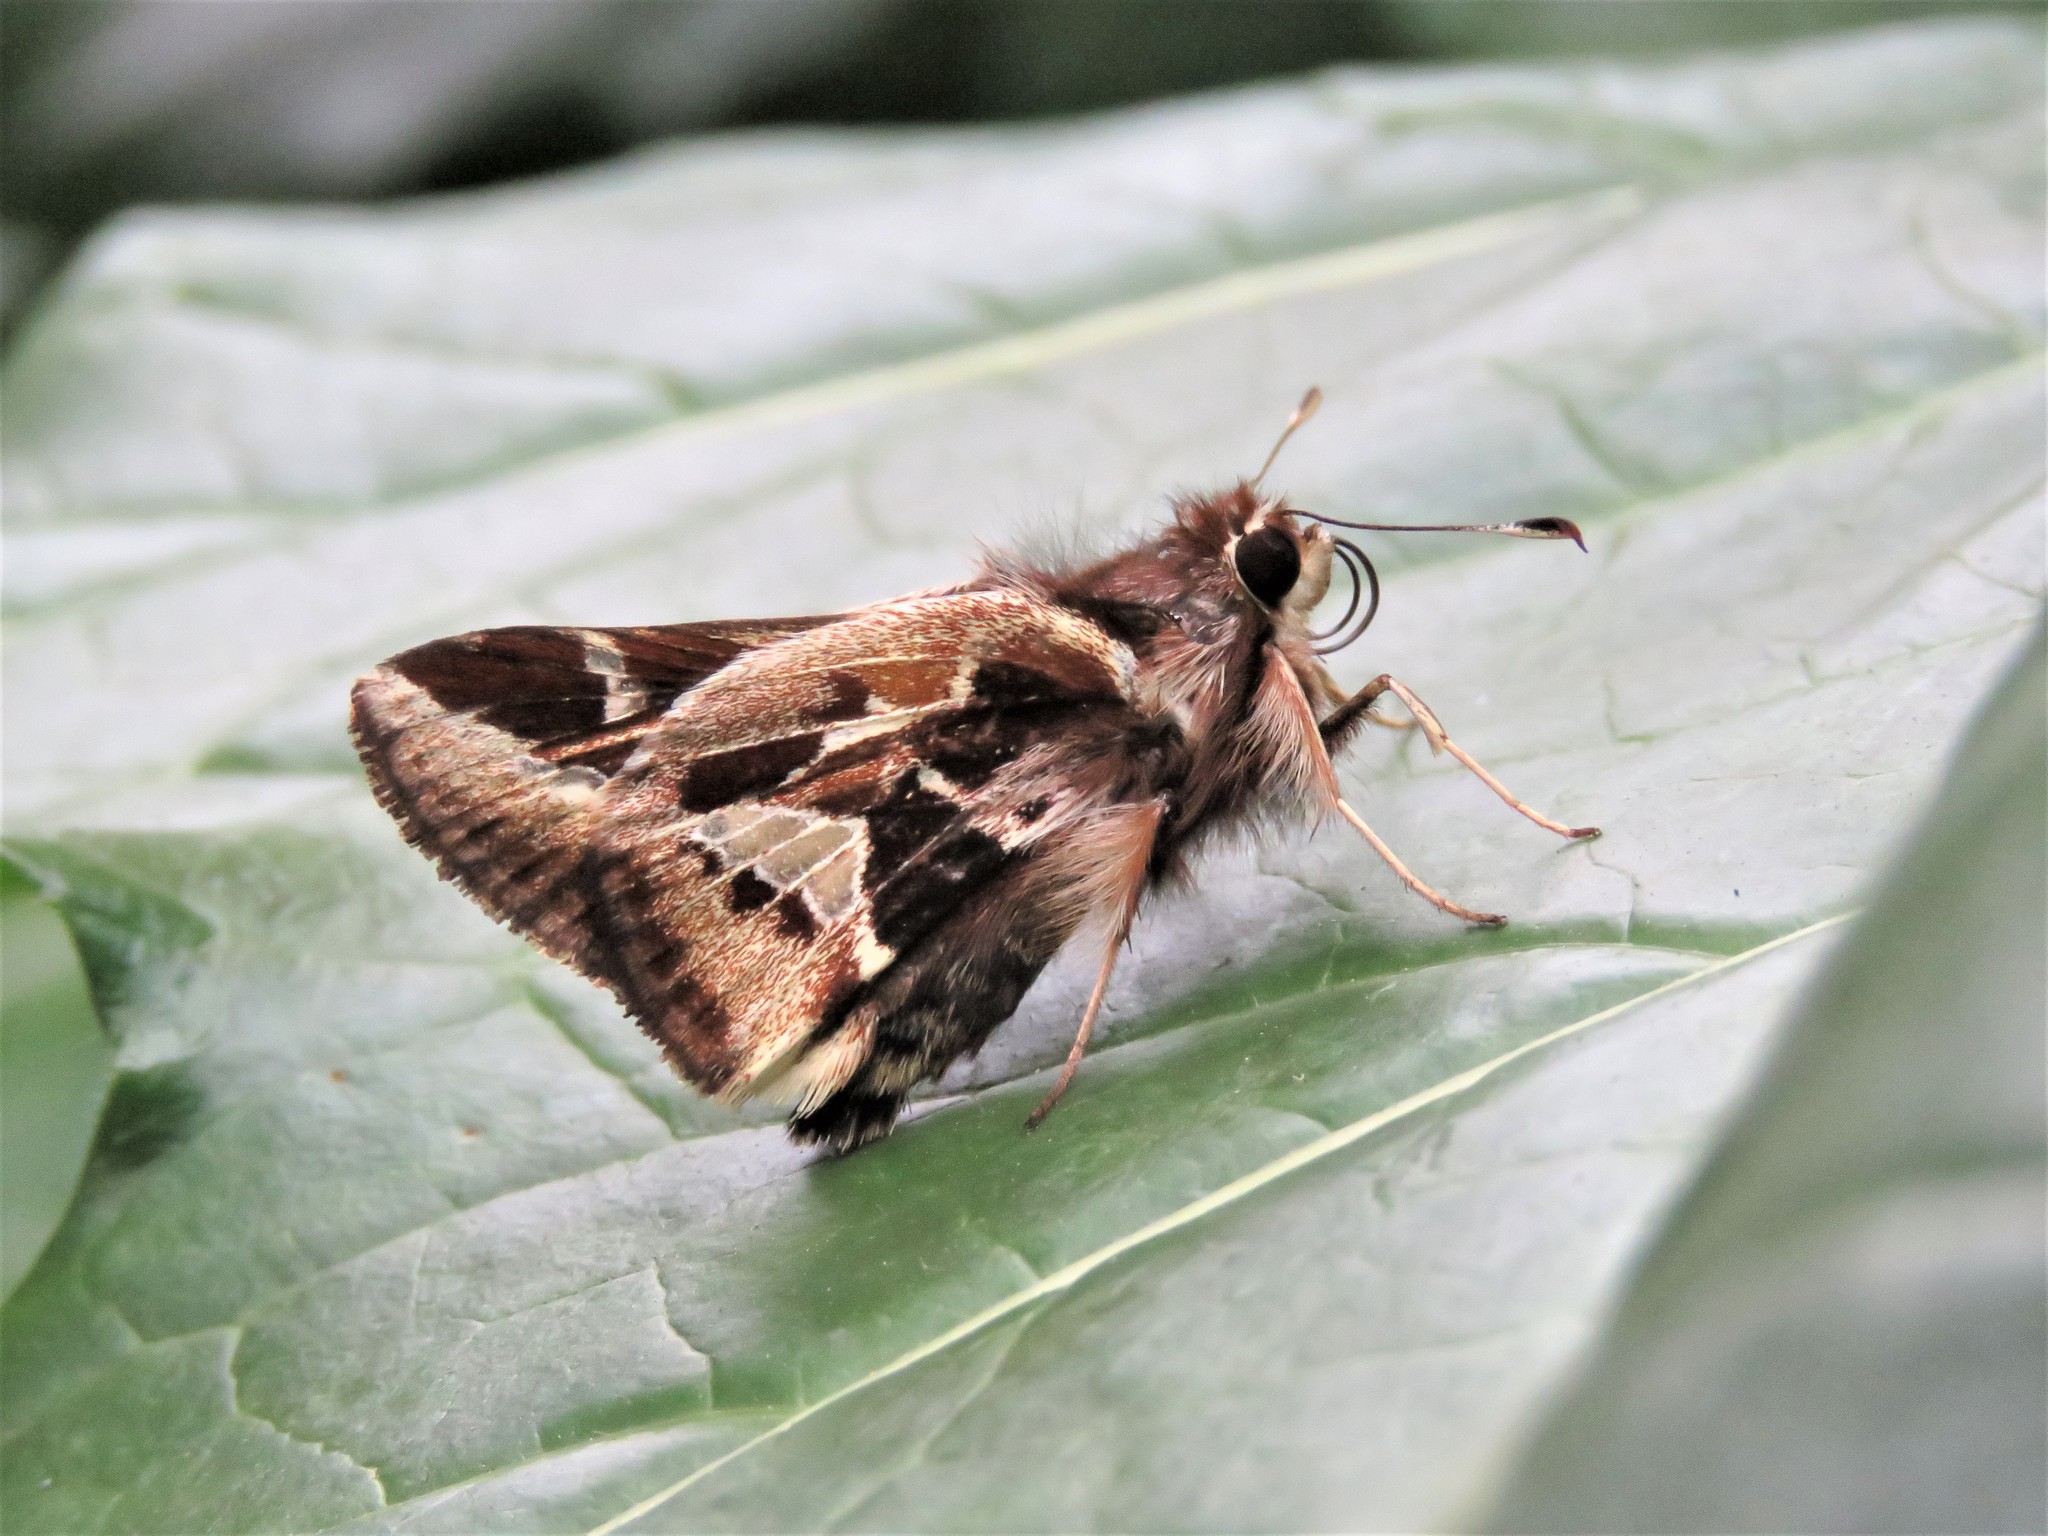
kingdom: Animalia
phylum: Arthropoda
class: Insecta
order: Lepidoptera
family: Hesperiidae
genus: Thespieus
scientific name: Thespieus othna
